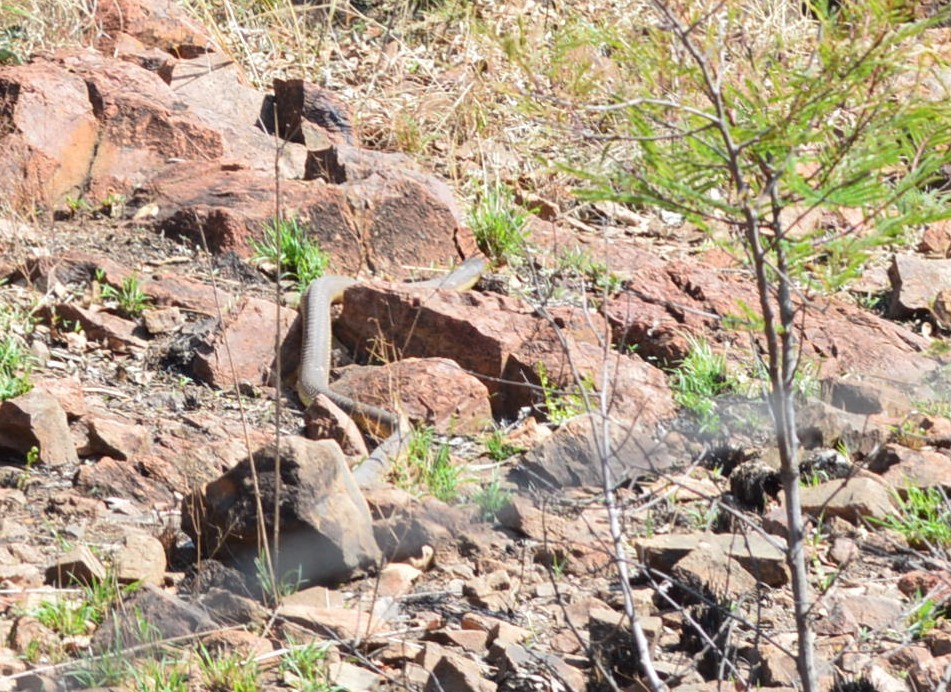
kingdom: Animalia
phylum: Chordata
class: Squamata
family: Elapidae
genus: Naja
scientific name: Naja annulifera
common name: Snouted cobra
